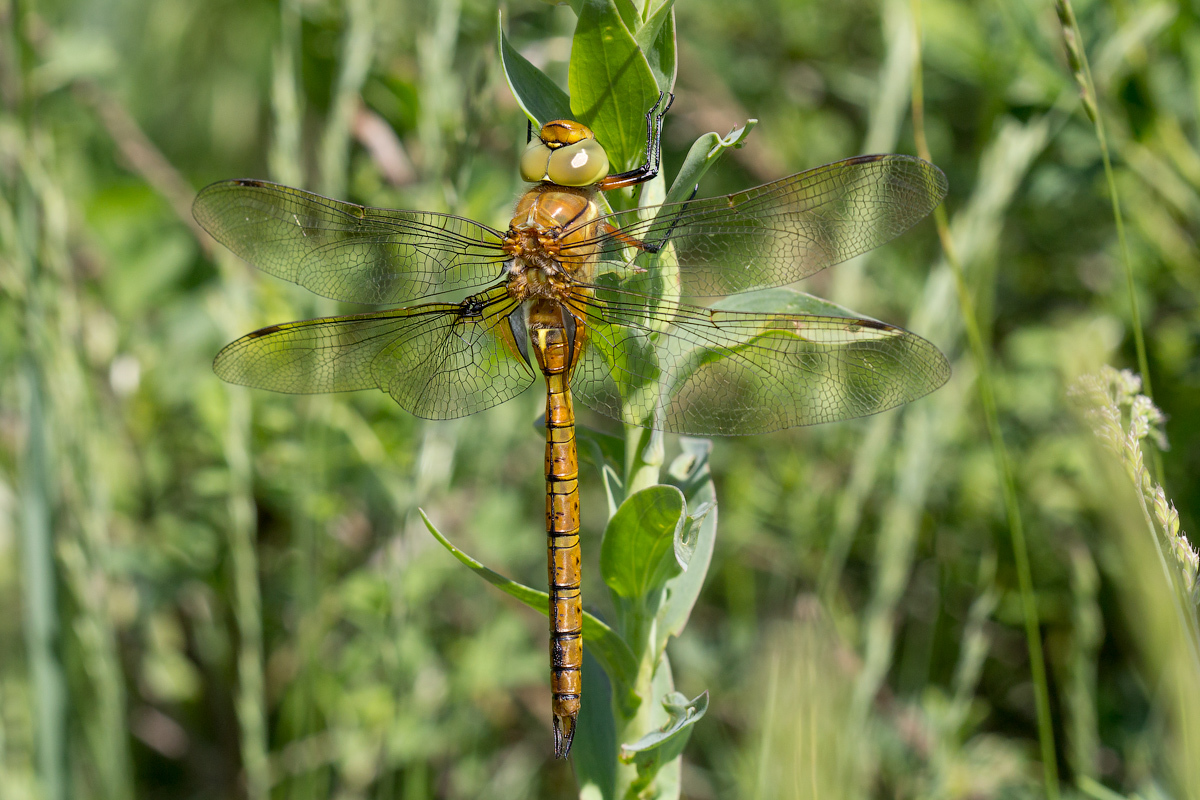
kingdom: Animalia
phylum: Arthropoda
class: Insecta
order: Odonata
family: Aeshnidae
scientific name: Aeshnidae
